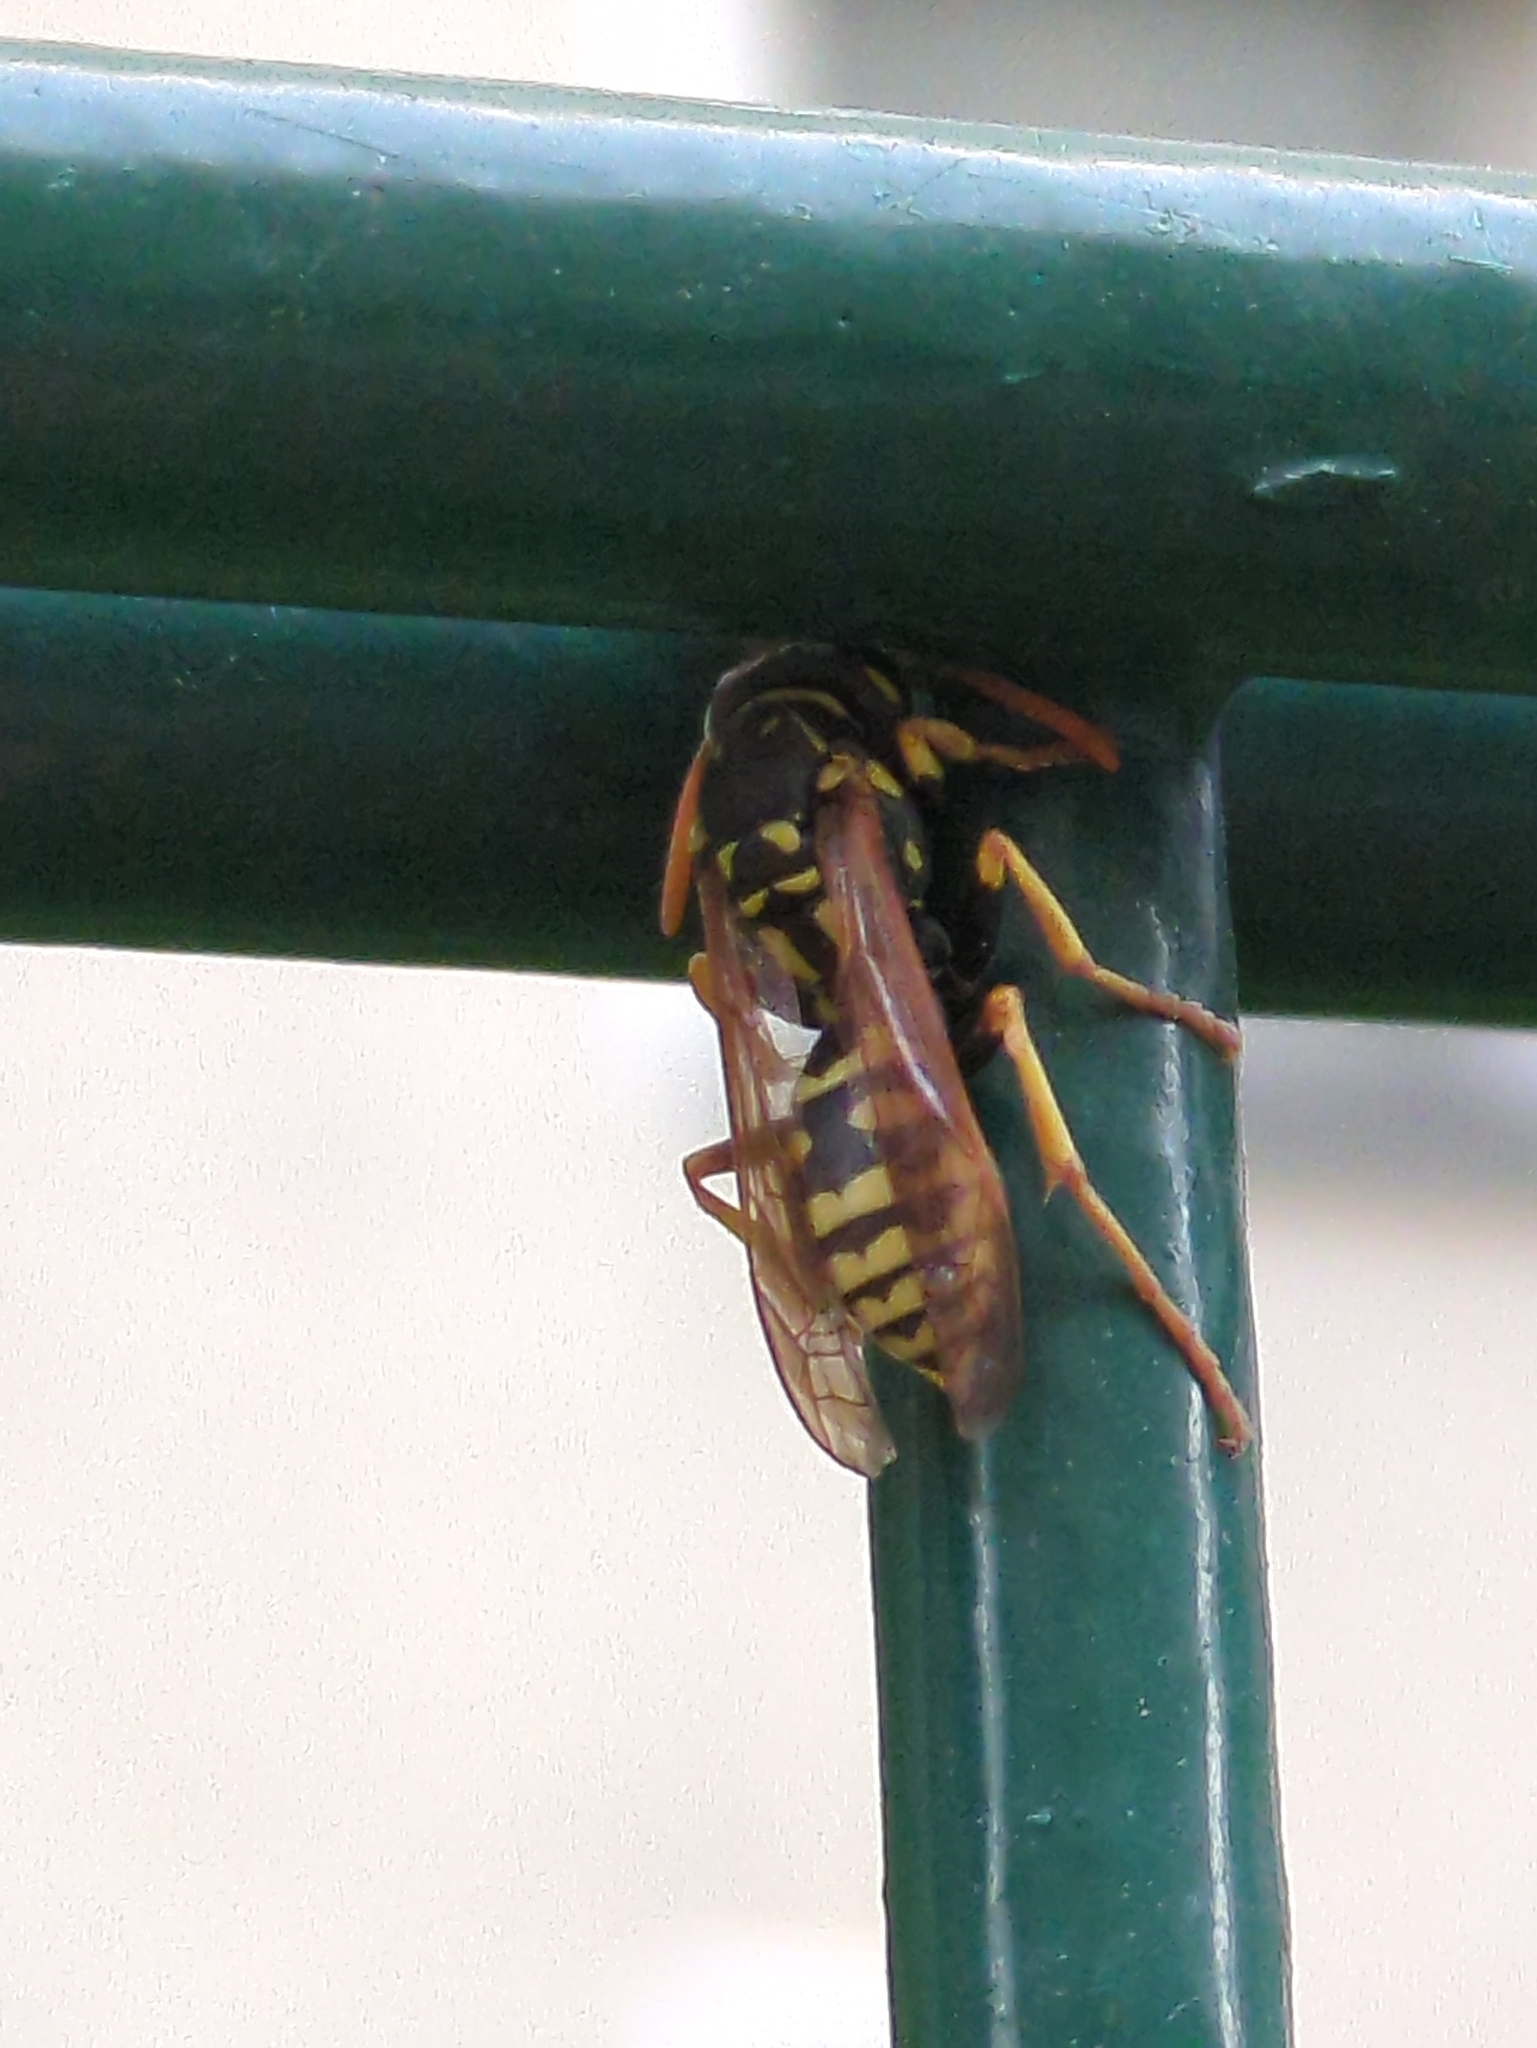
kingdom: Animalia
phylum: Arthropoda
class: Insecta
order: Hymenoptera
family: Eumenidae
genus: Polistes
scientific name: Polistes dominula
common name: Paper wasp
